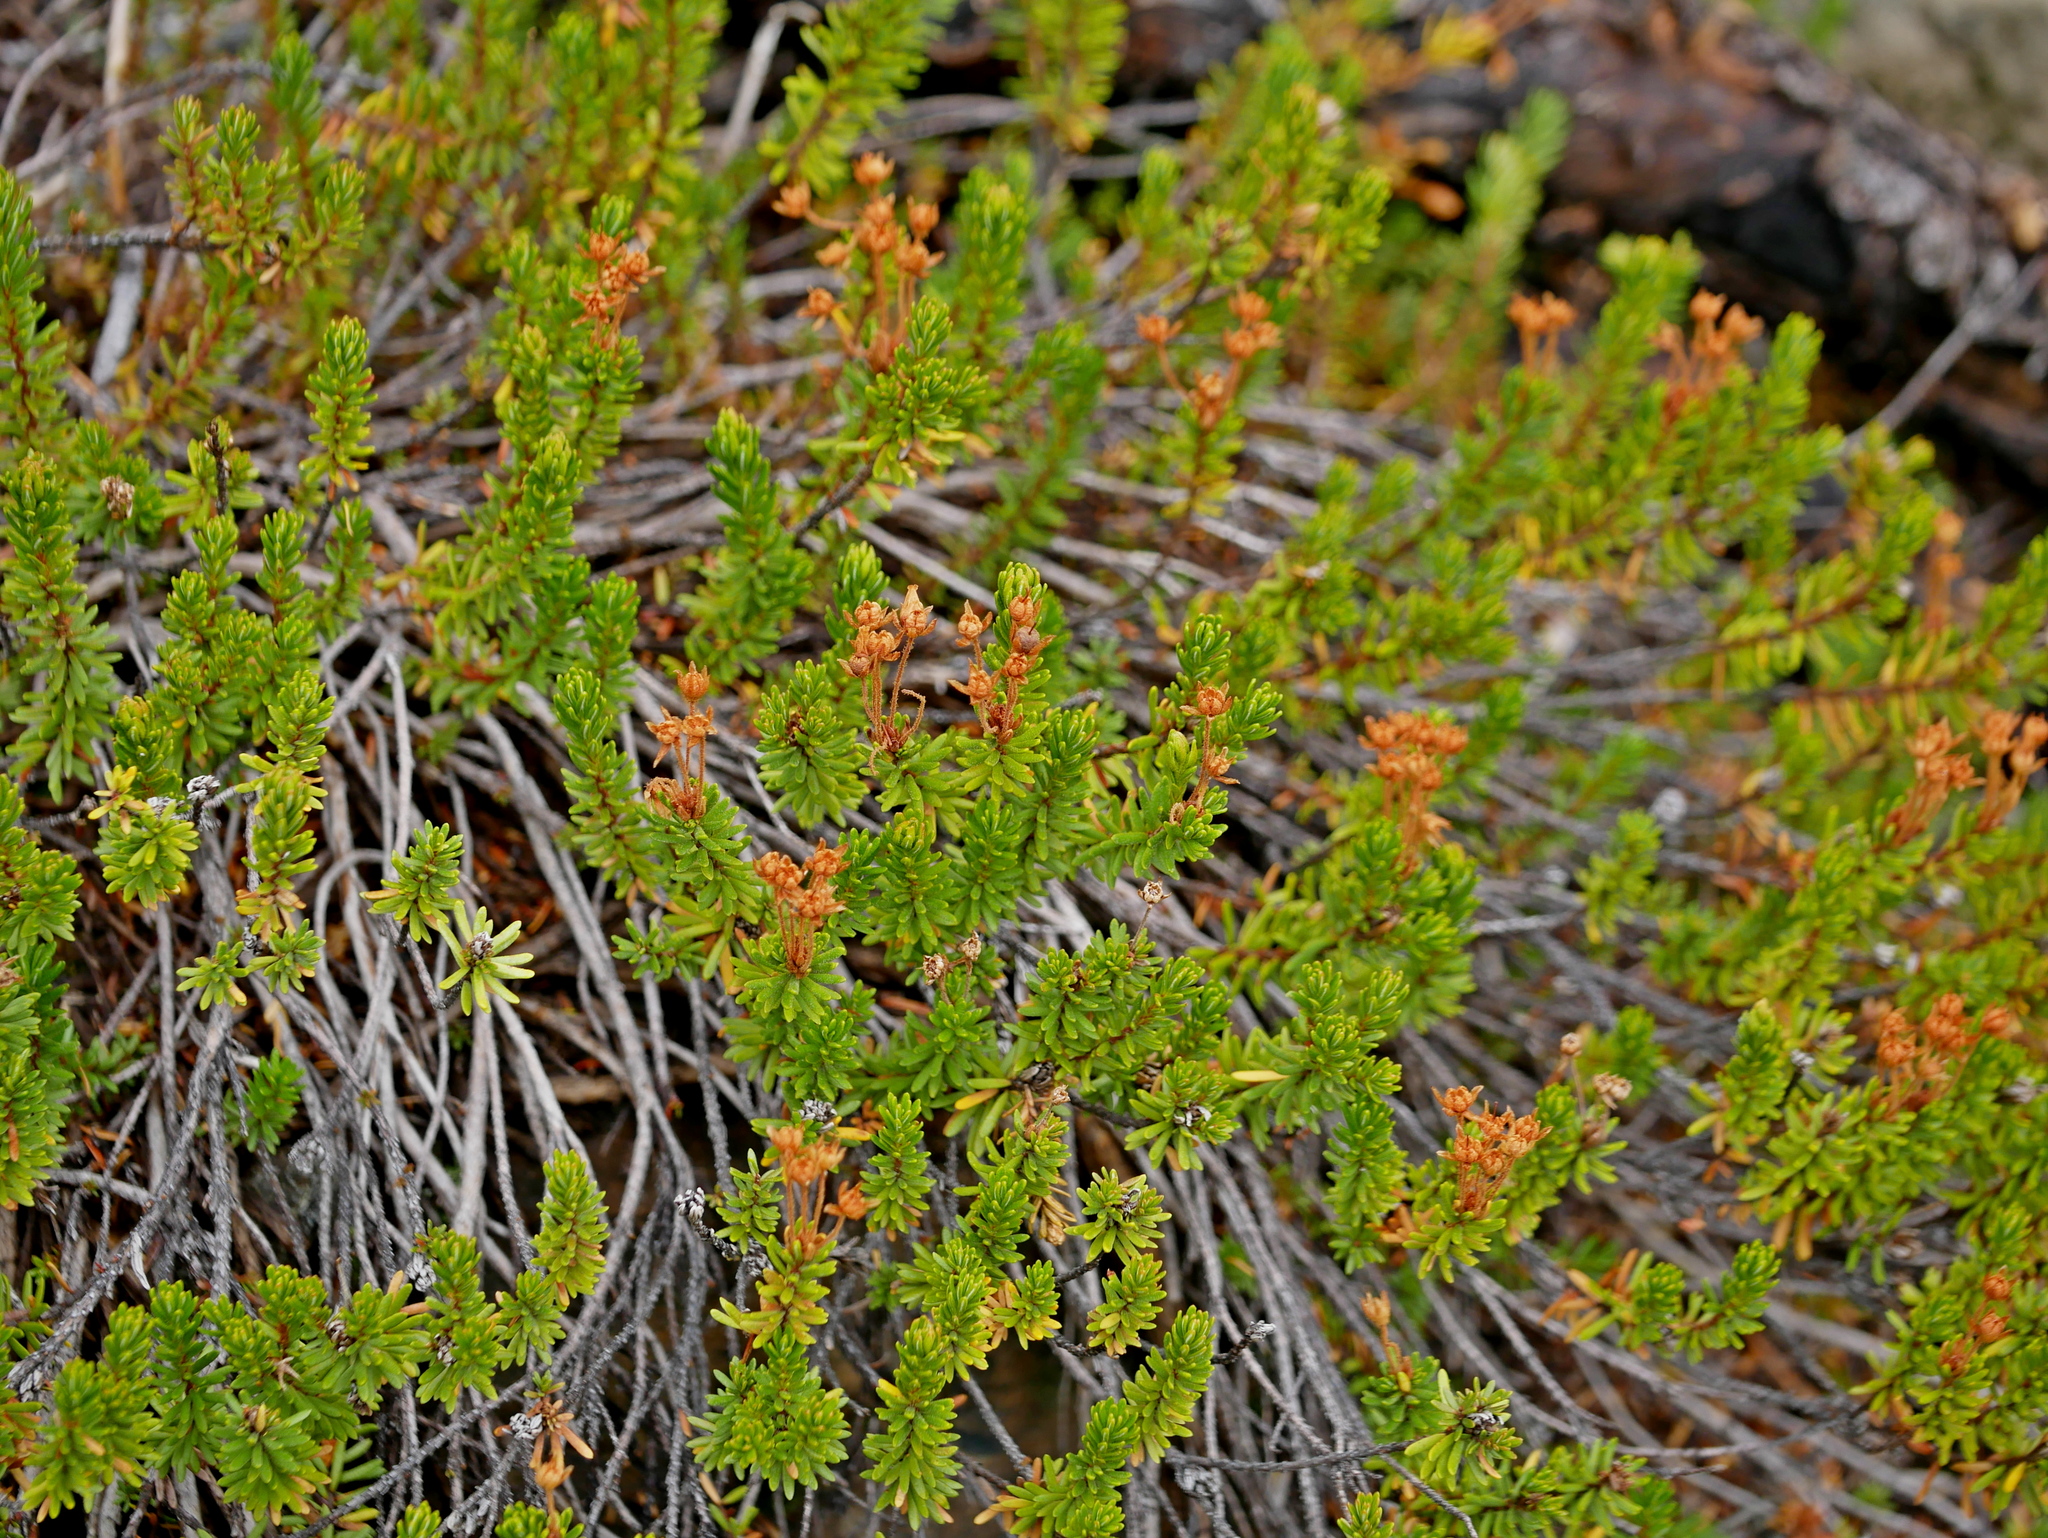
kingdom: Plantae
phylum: Tracheophyta
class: Magnoliopsida
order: Ericales
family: Ericaceae
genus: Phyllodoce
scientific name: Phyllodoce empetriformis
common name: Pink mountain heather
